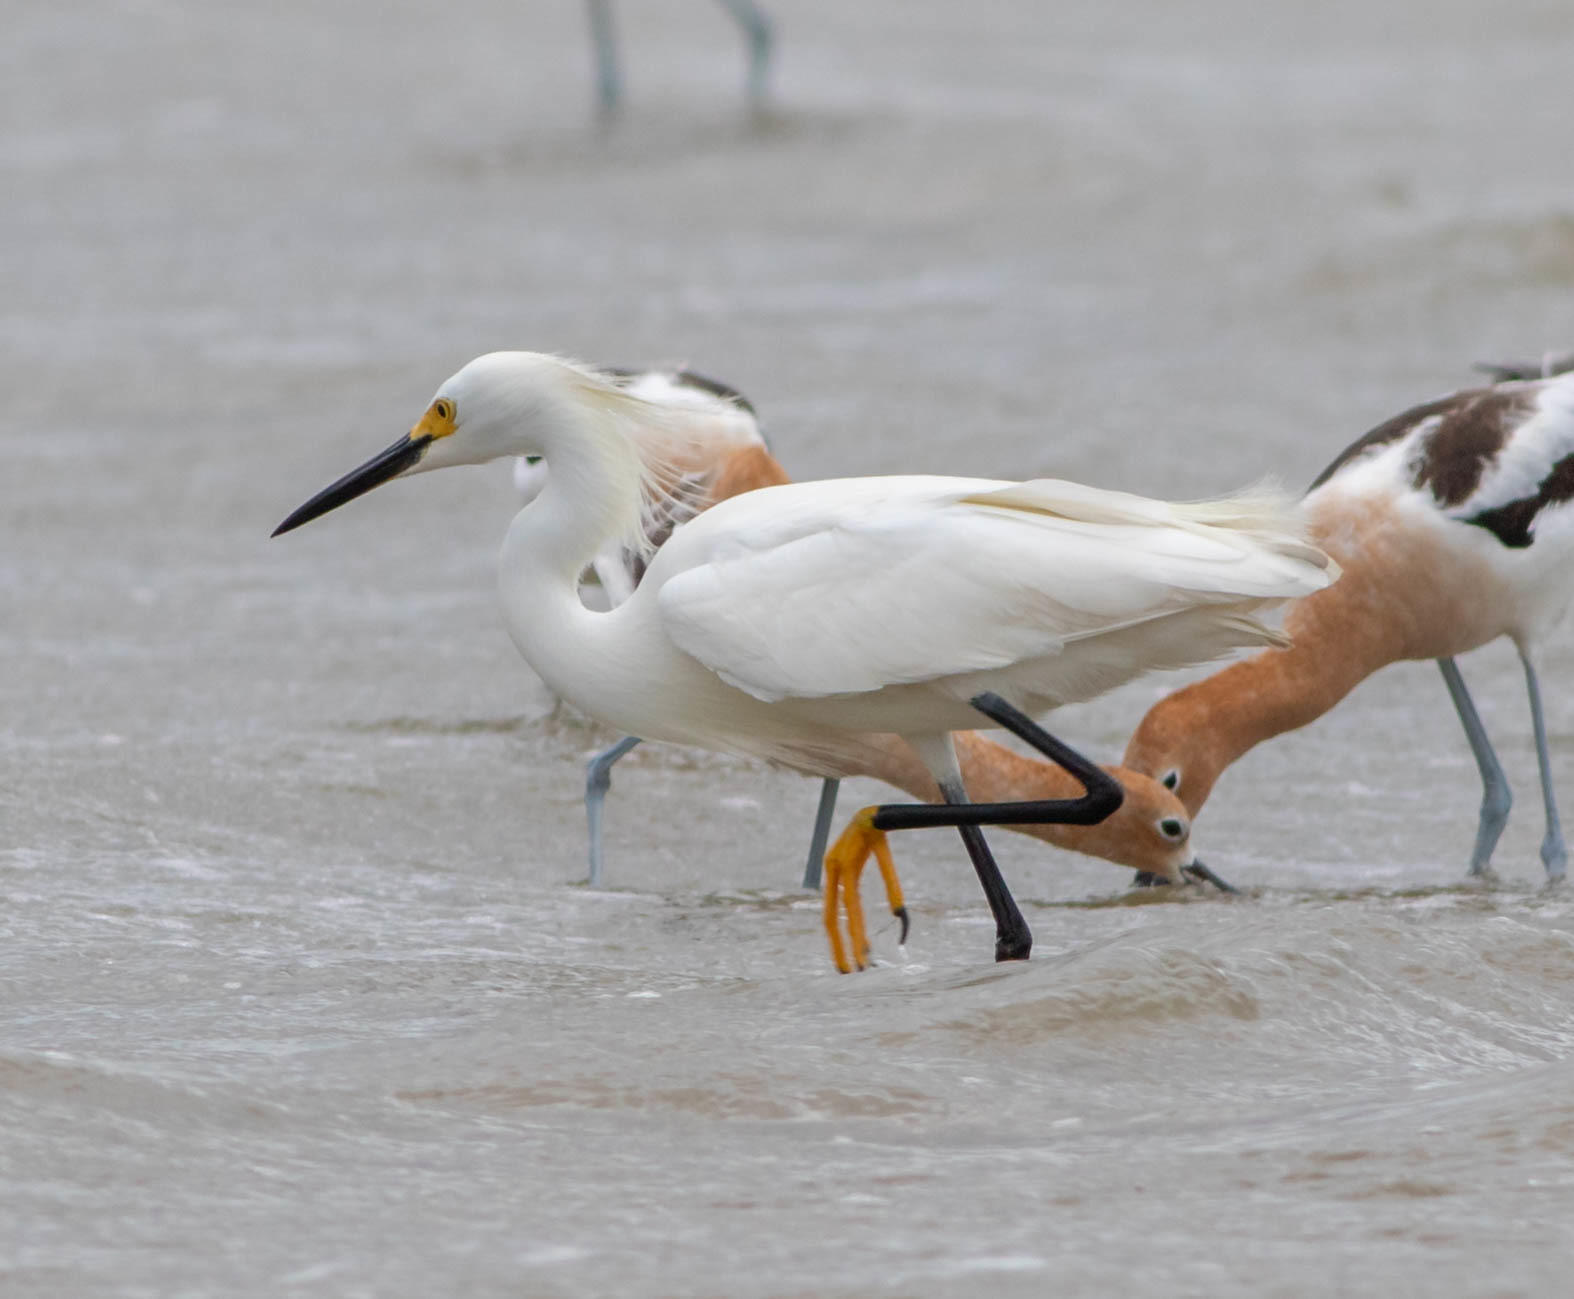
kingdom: Animalia
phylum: Chordata
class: Aves
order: Pelecaniformes
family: Ardeidae
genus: Egretta
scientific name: Egretta thula
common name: Snowy egret
